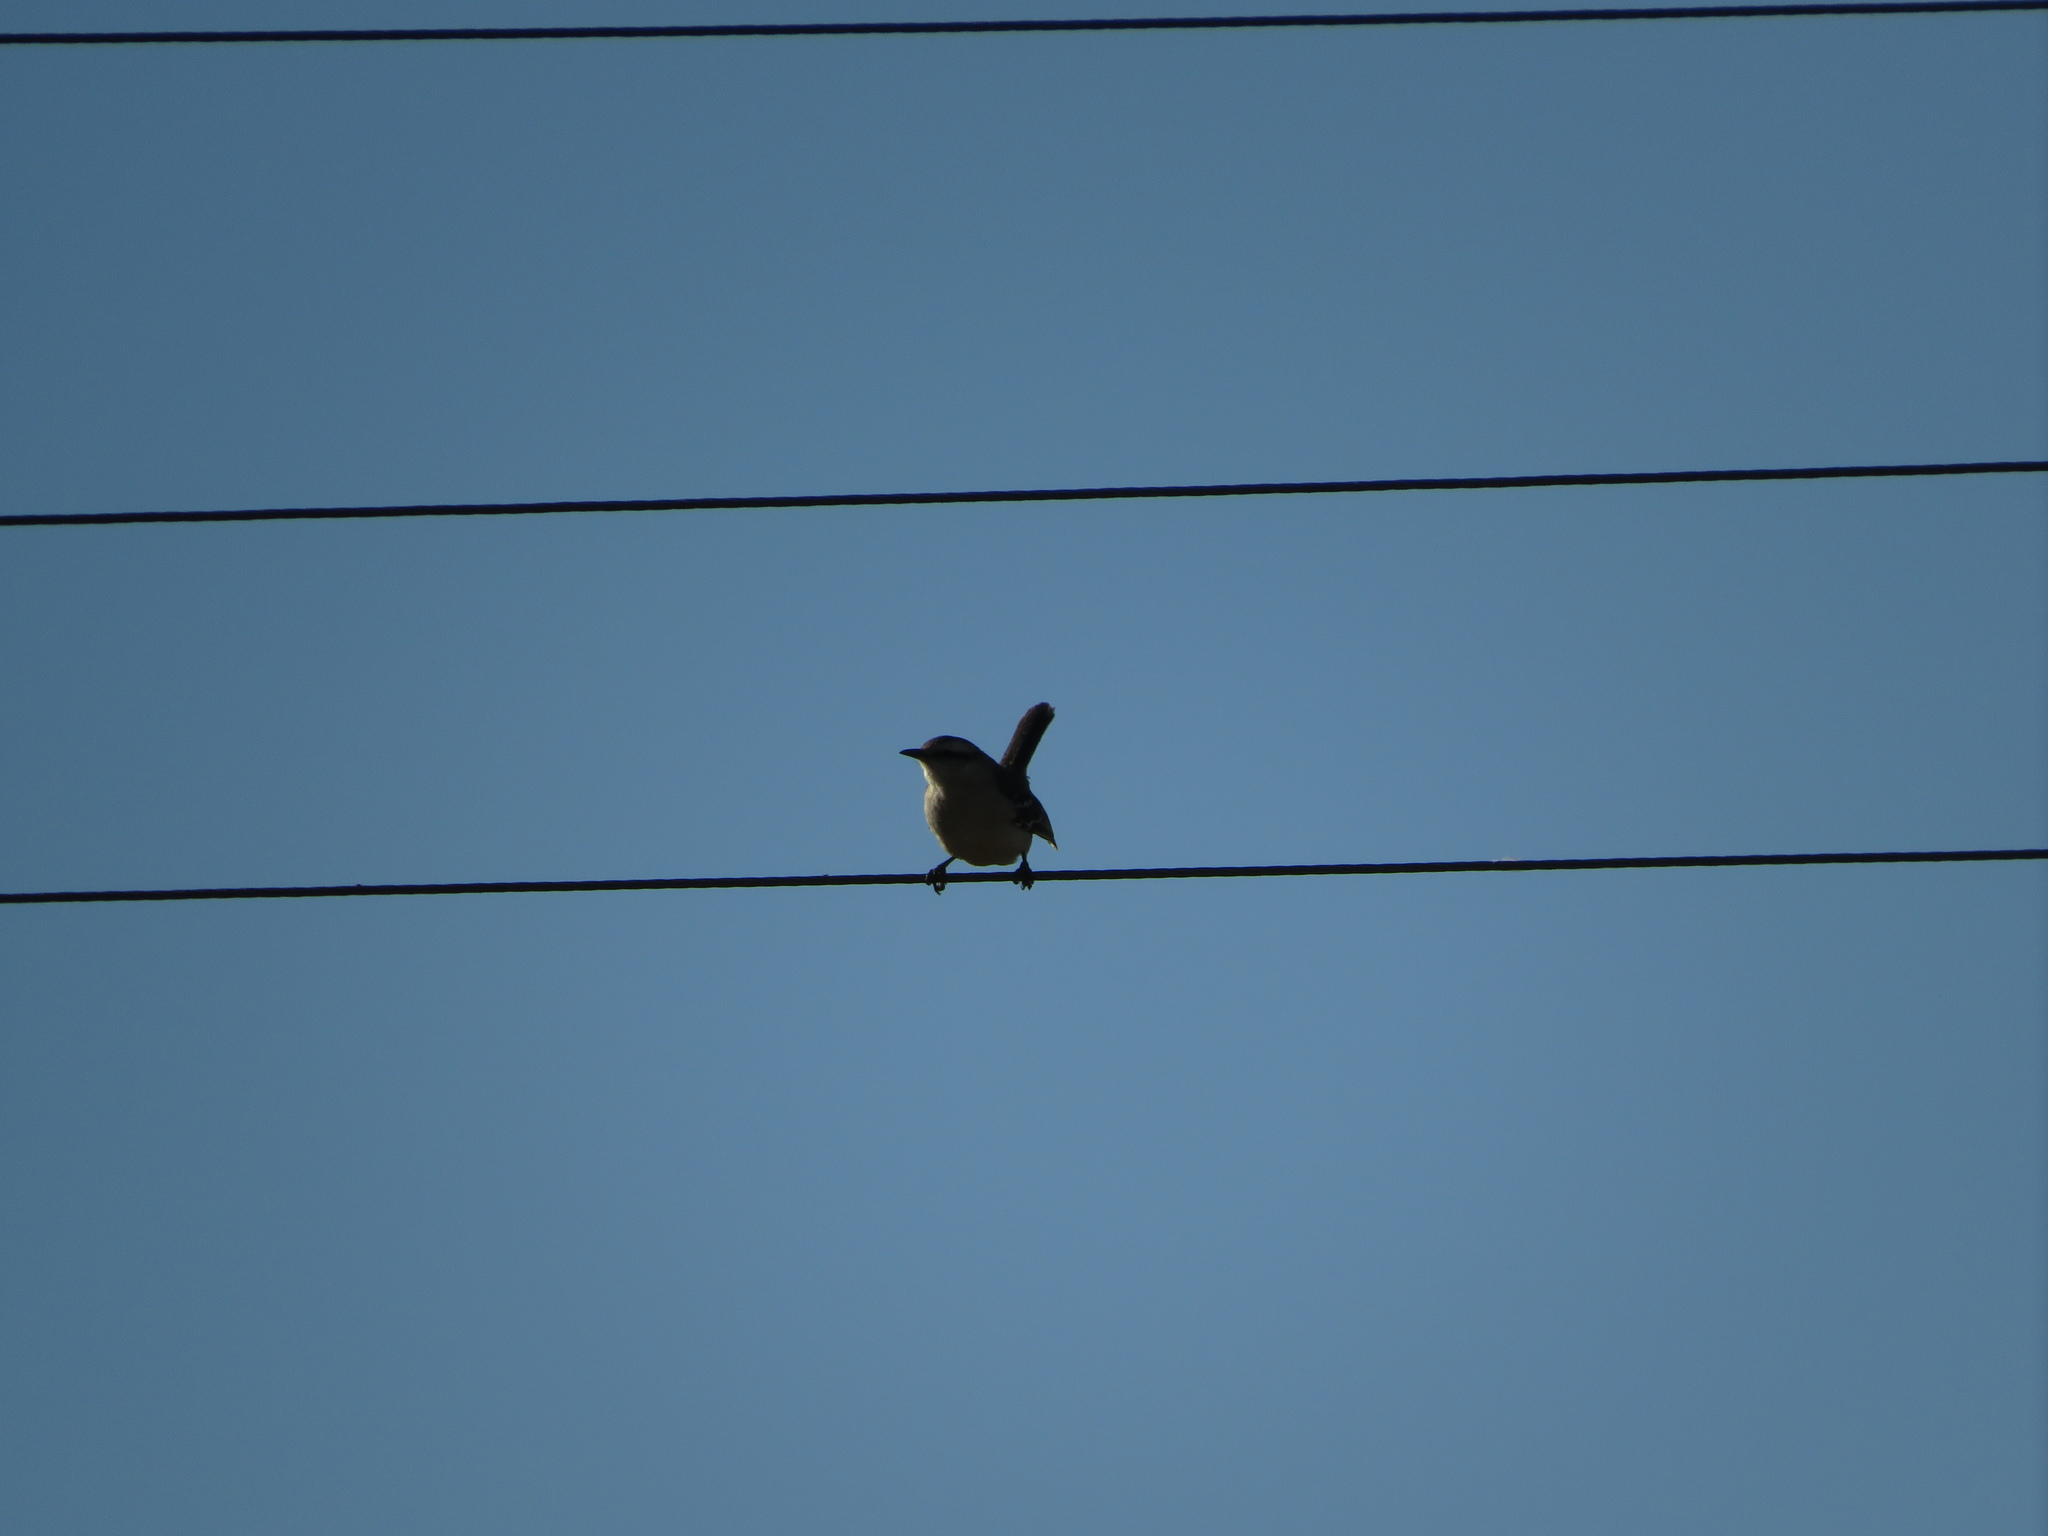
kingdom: Animalia
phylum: Chordata
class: Aves
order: Passeriformes
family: Mimidae
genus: Mimus
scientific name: Mimus saturninus
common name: Chalk-browed mockingbird
